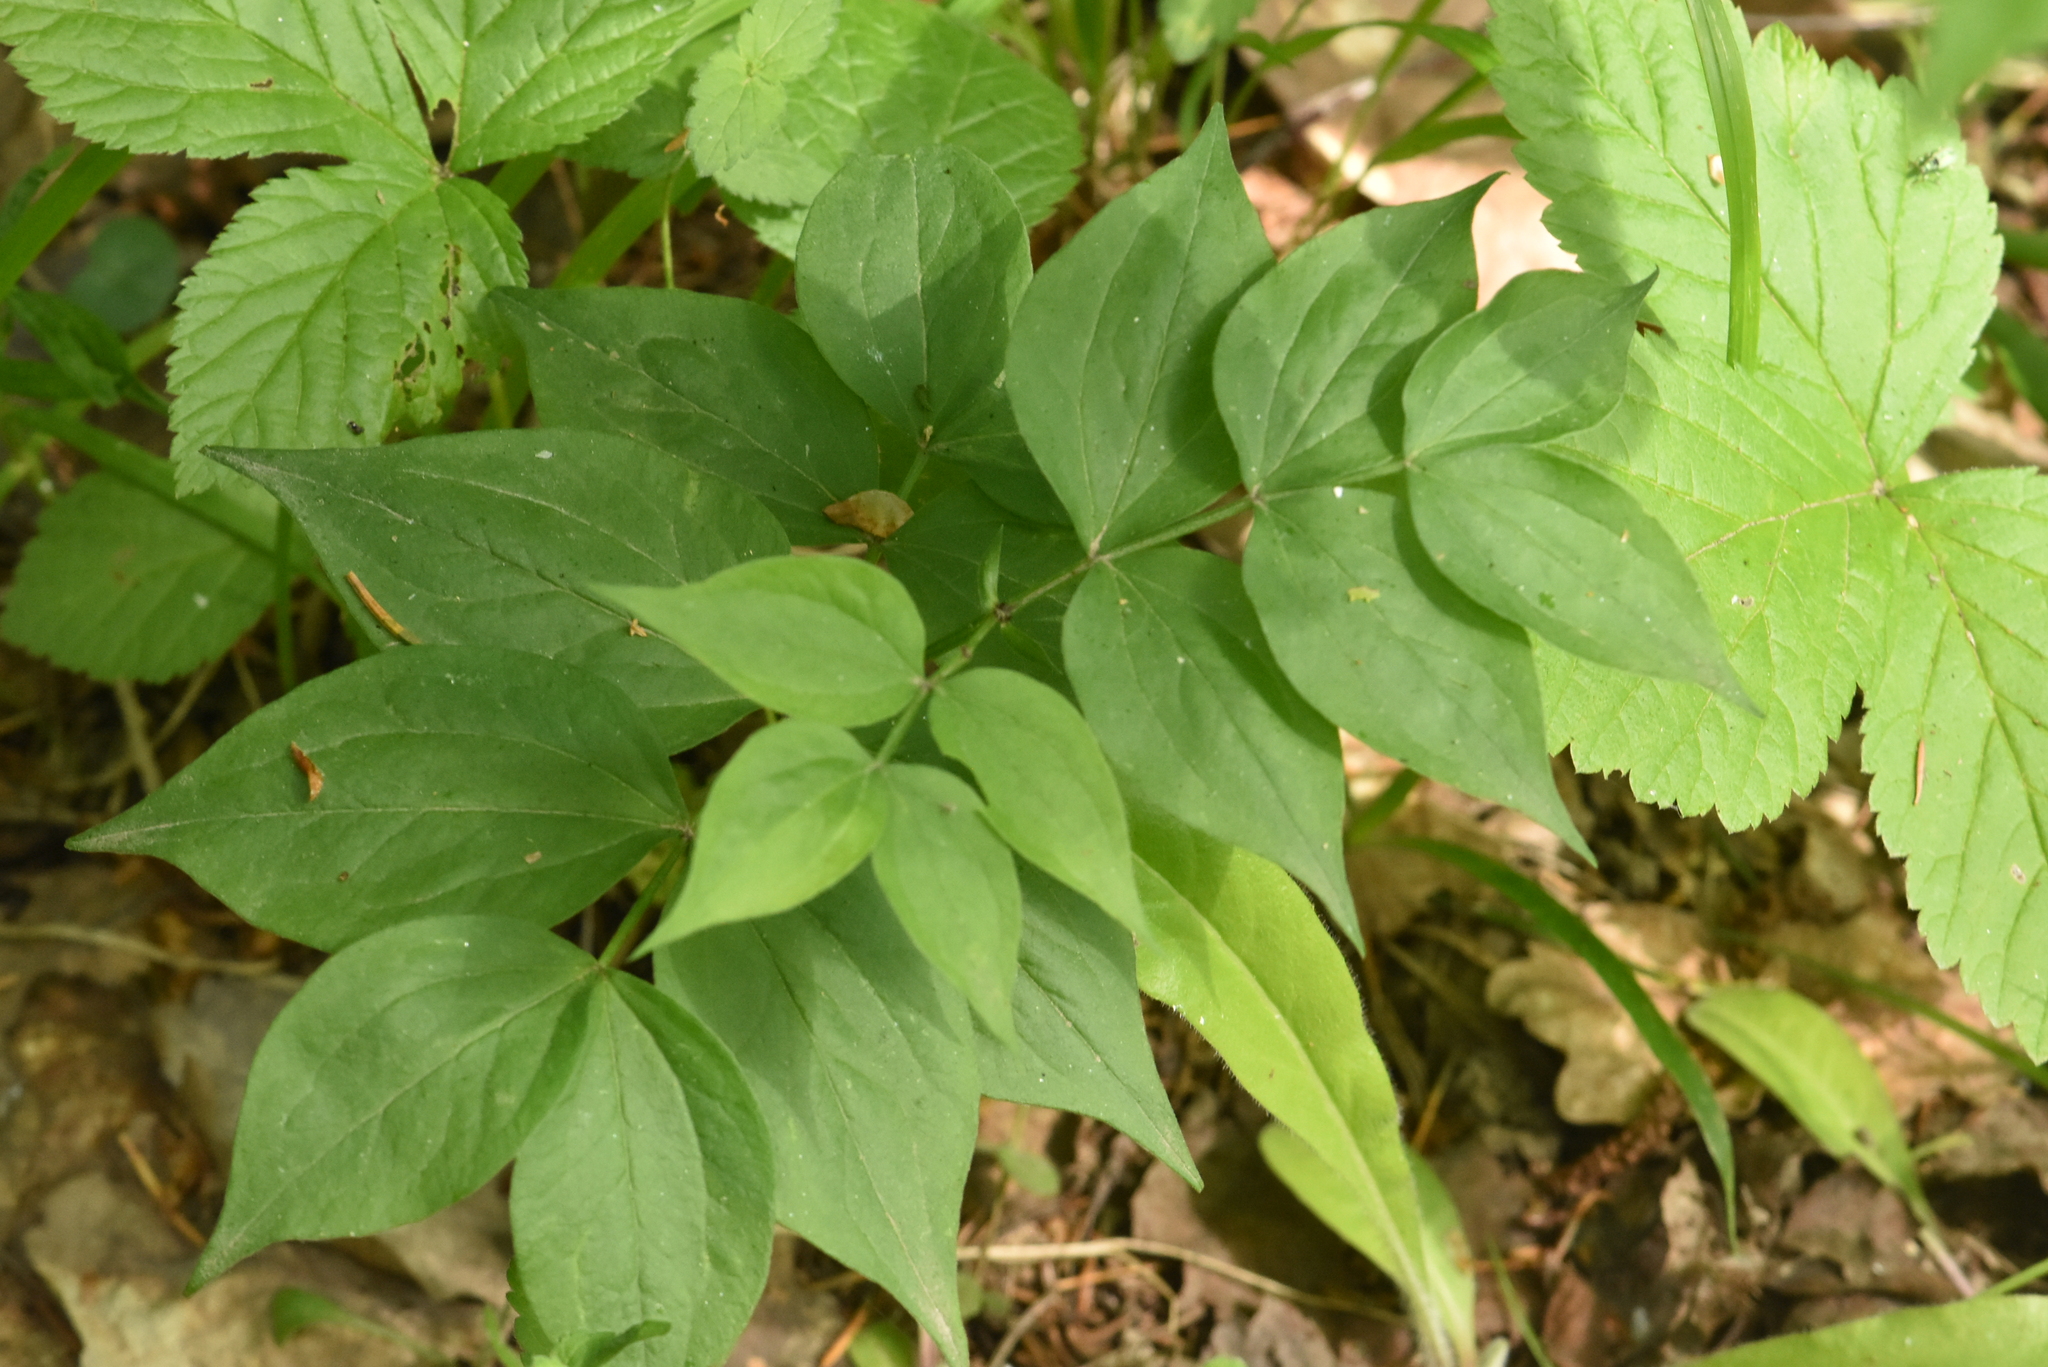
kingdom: Plantae
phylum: Tracheophyta
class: Magnoliopsida
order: Fabales
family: Fabaceae
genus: Lathyrus
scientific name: Lathyrus vernus
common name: Spring pea
